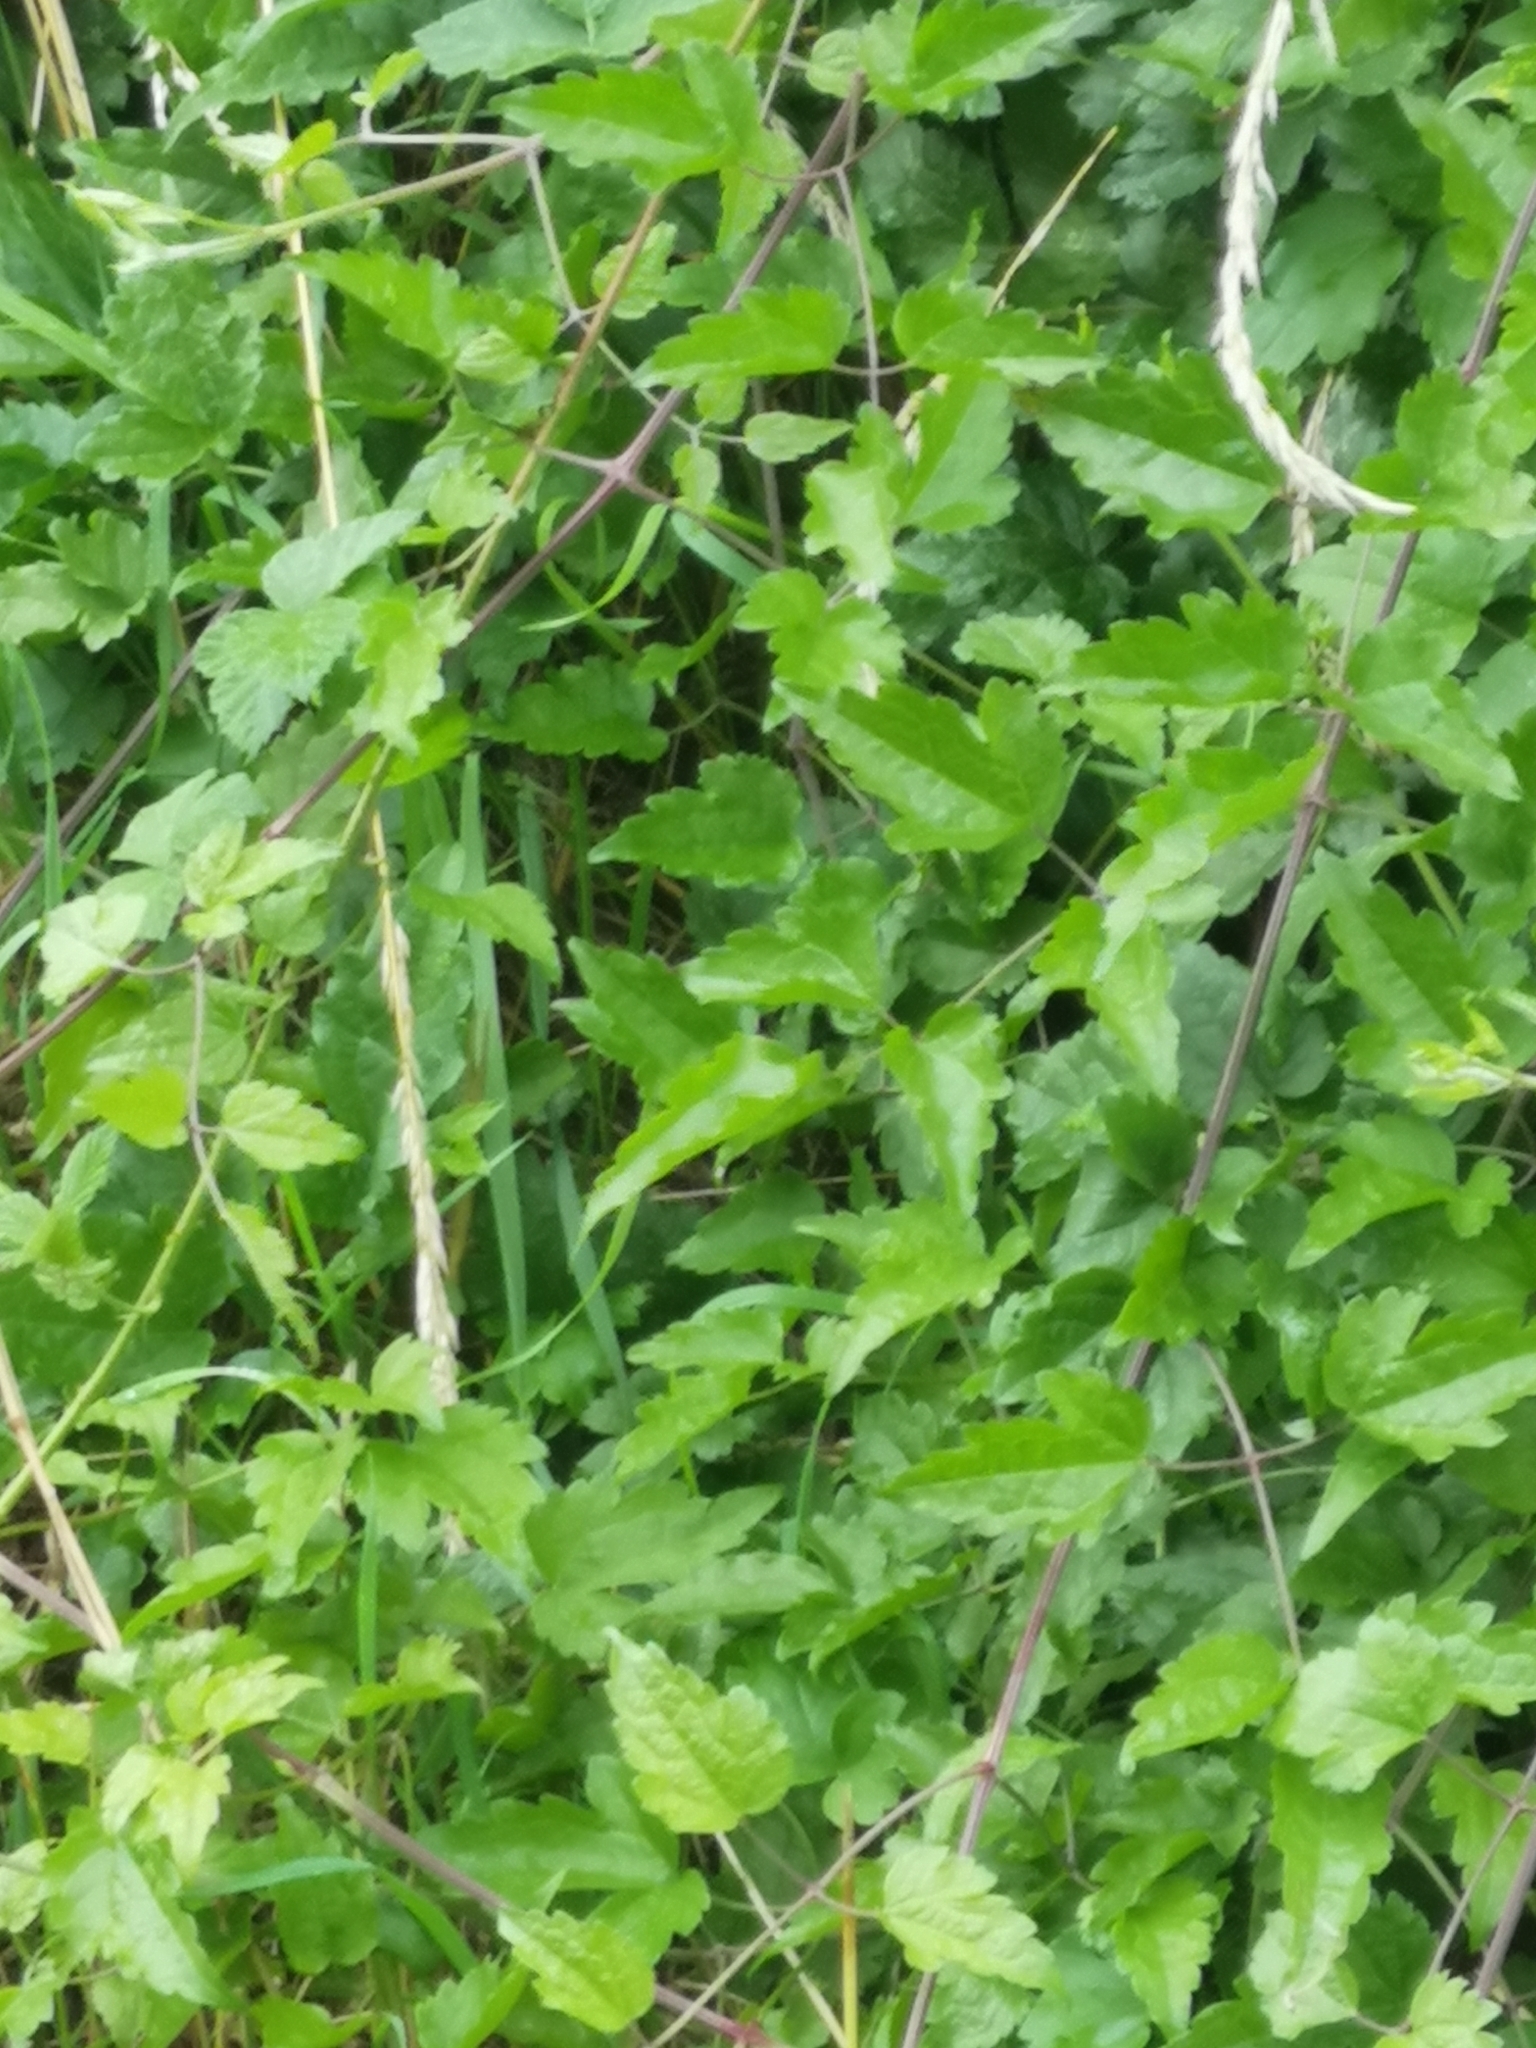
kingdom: Plantae
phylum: Tracheophyta
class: Magnoliopsida
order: Ranunculales
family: Ranunculaceae
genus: Clematis
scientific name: Clematis vitalba
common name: Evergreen clematis
